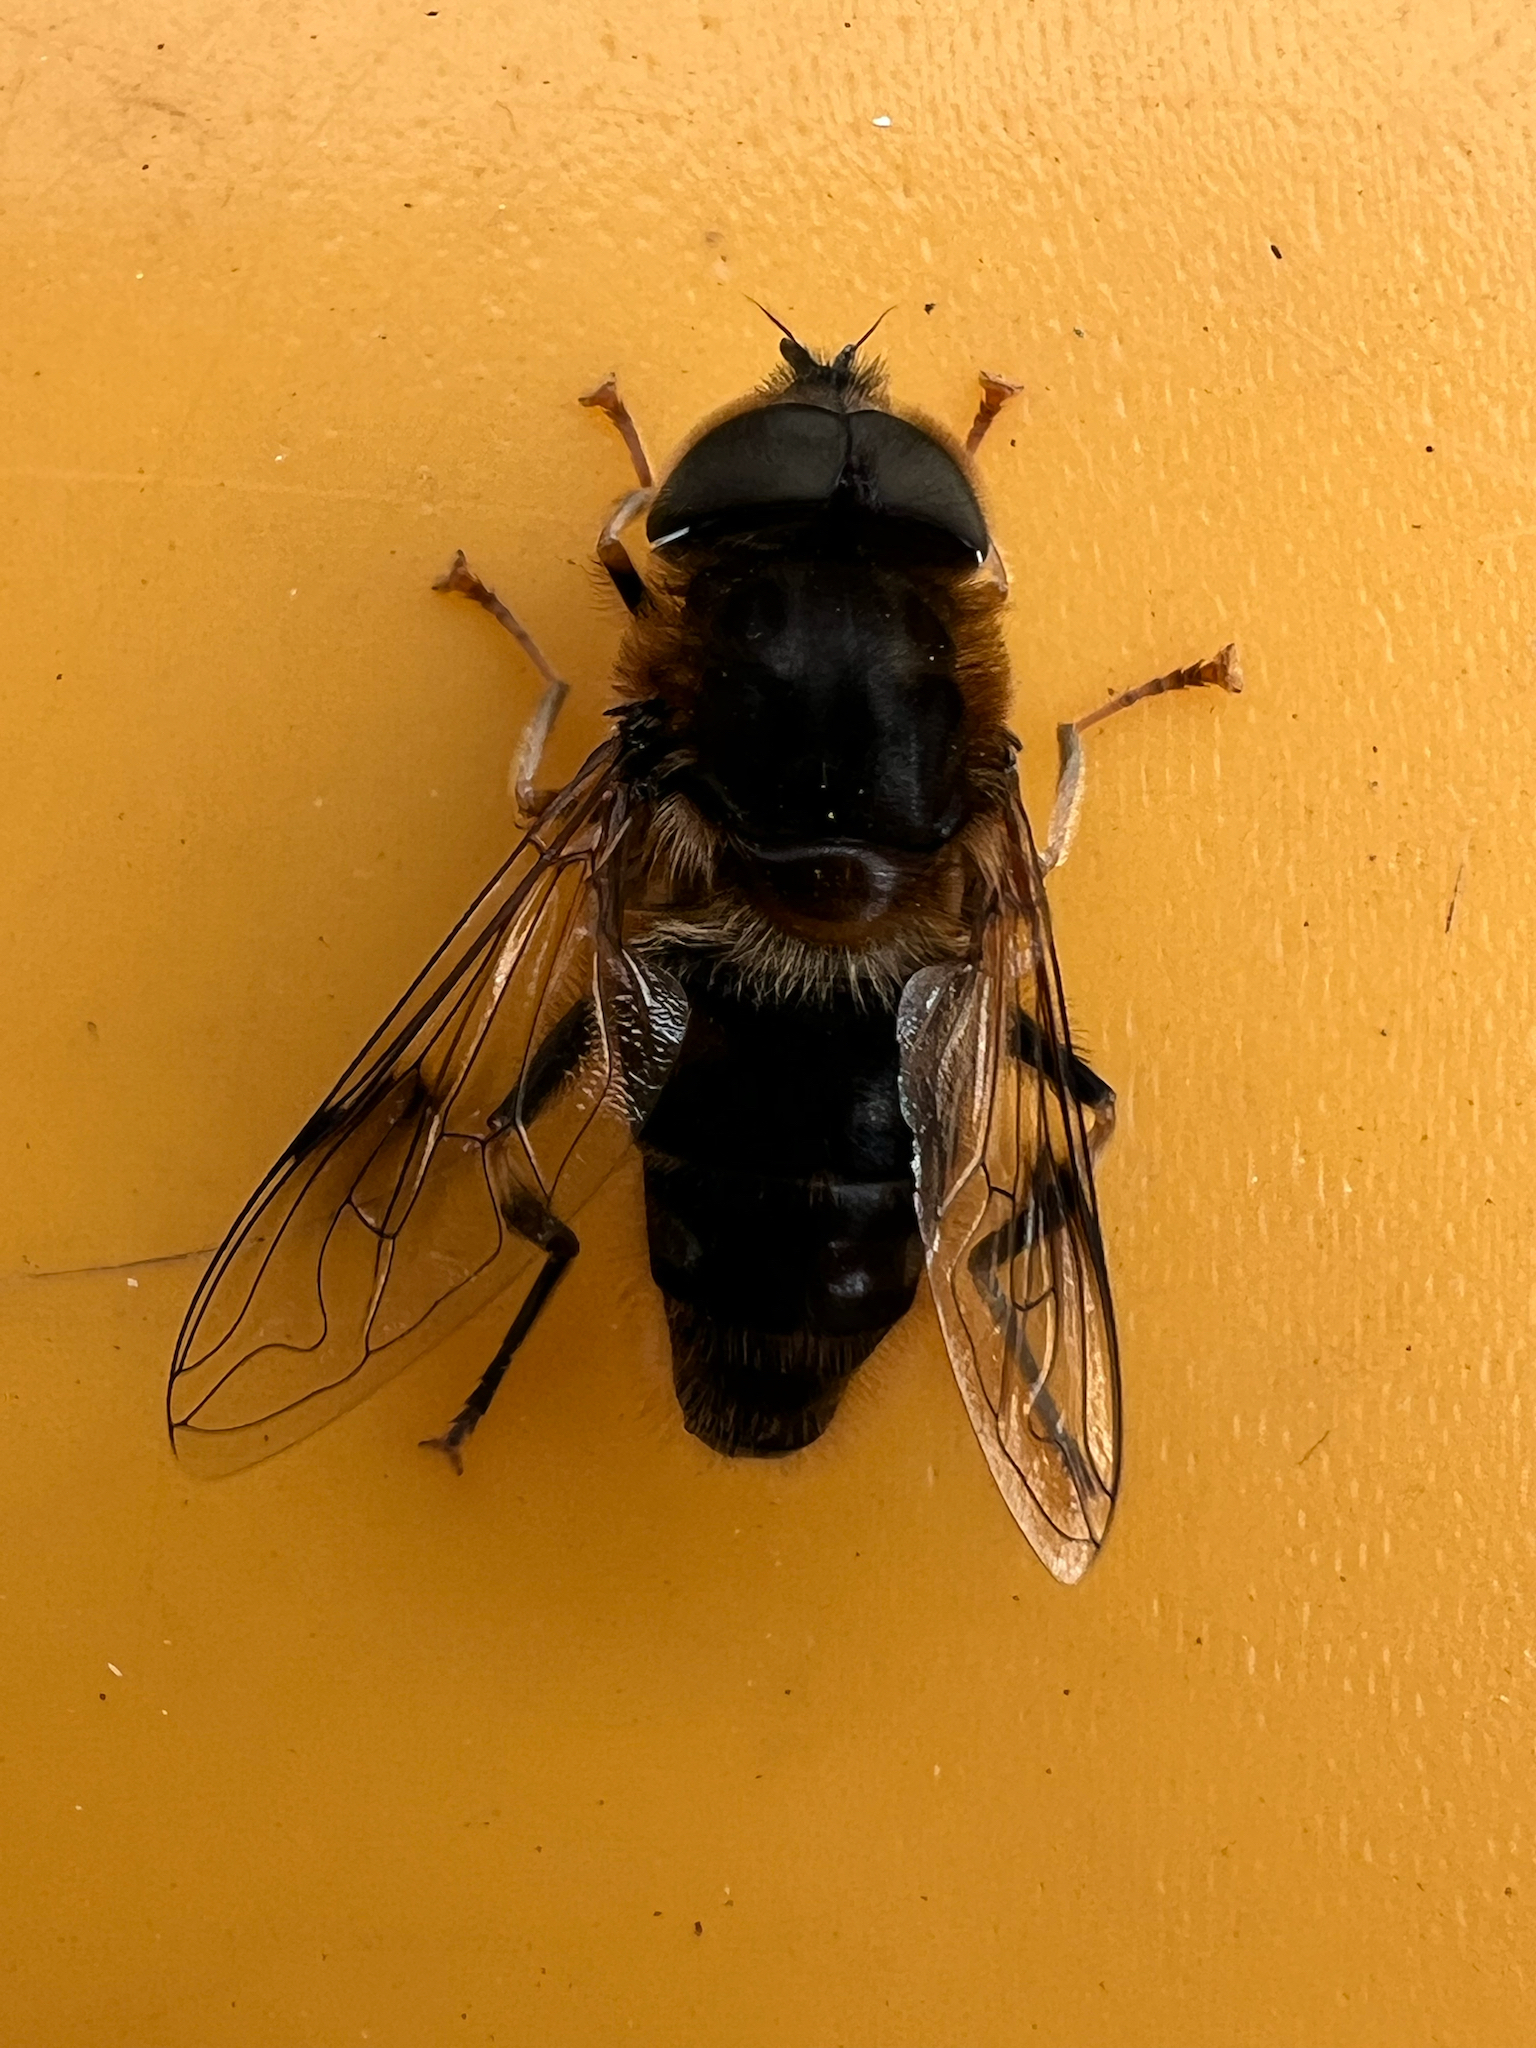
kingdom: Animalia
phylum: Arthropoda
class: Insecta
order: Diptera
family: Syrphidae
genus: Eristalis
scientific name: Eristalis pertinax
